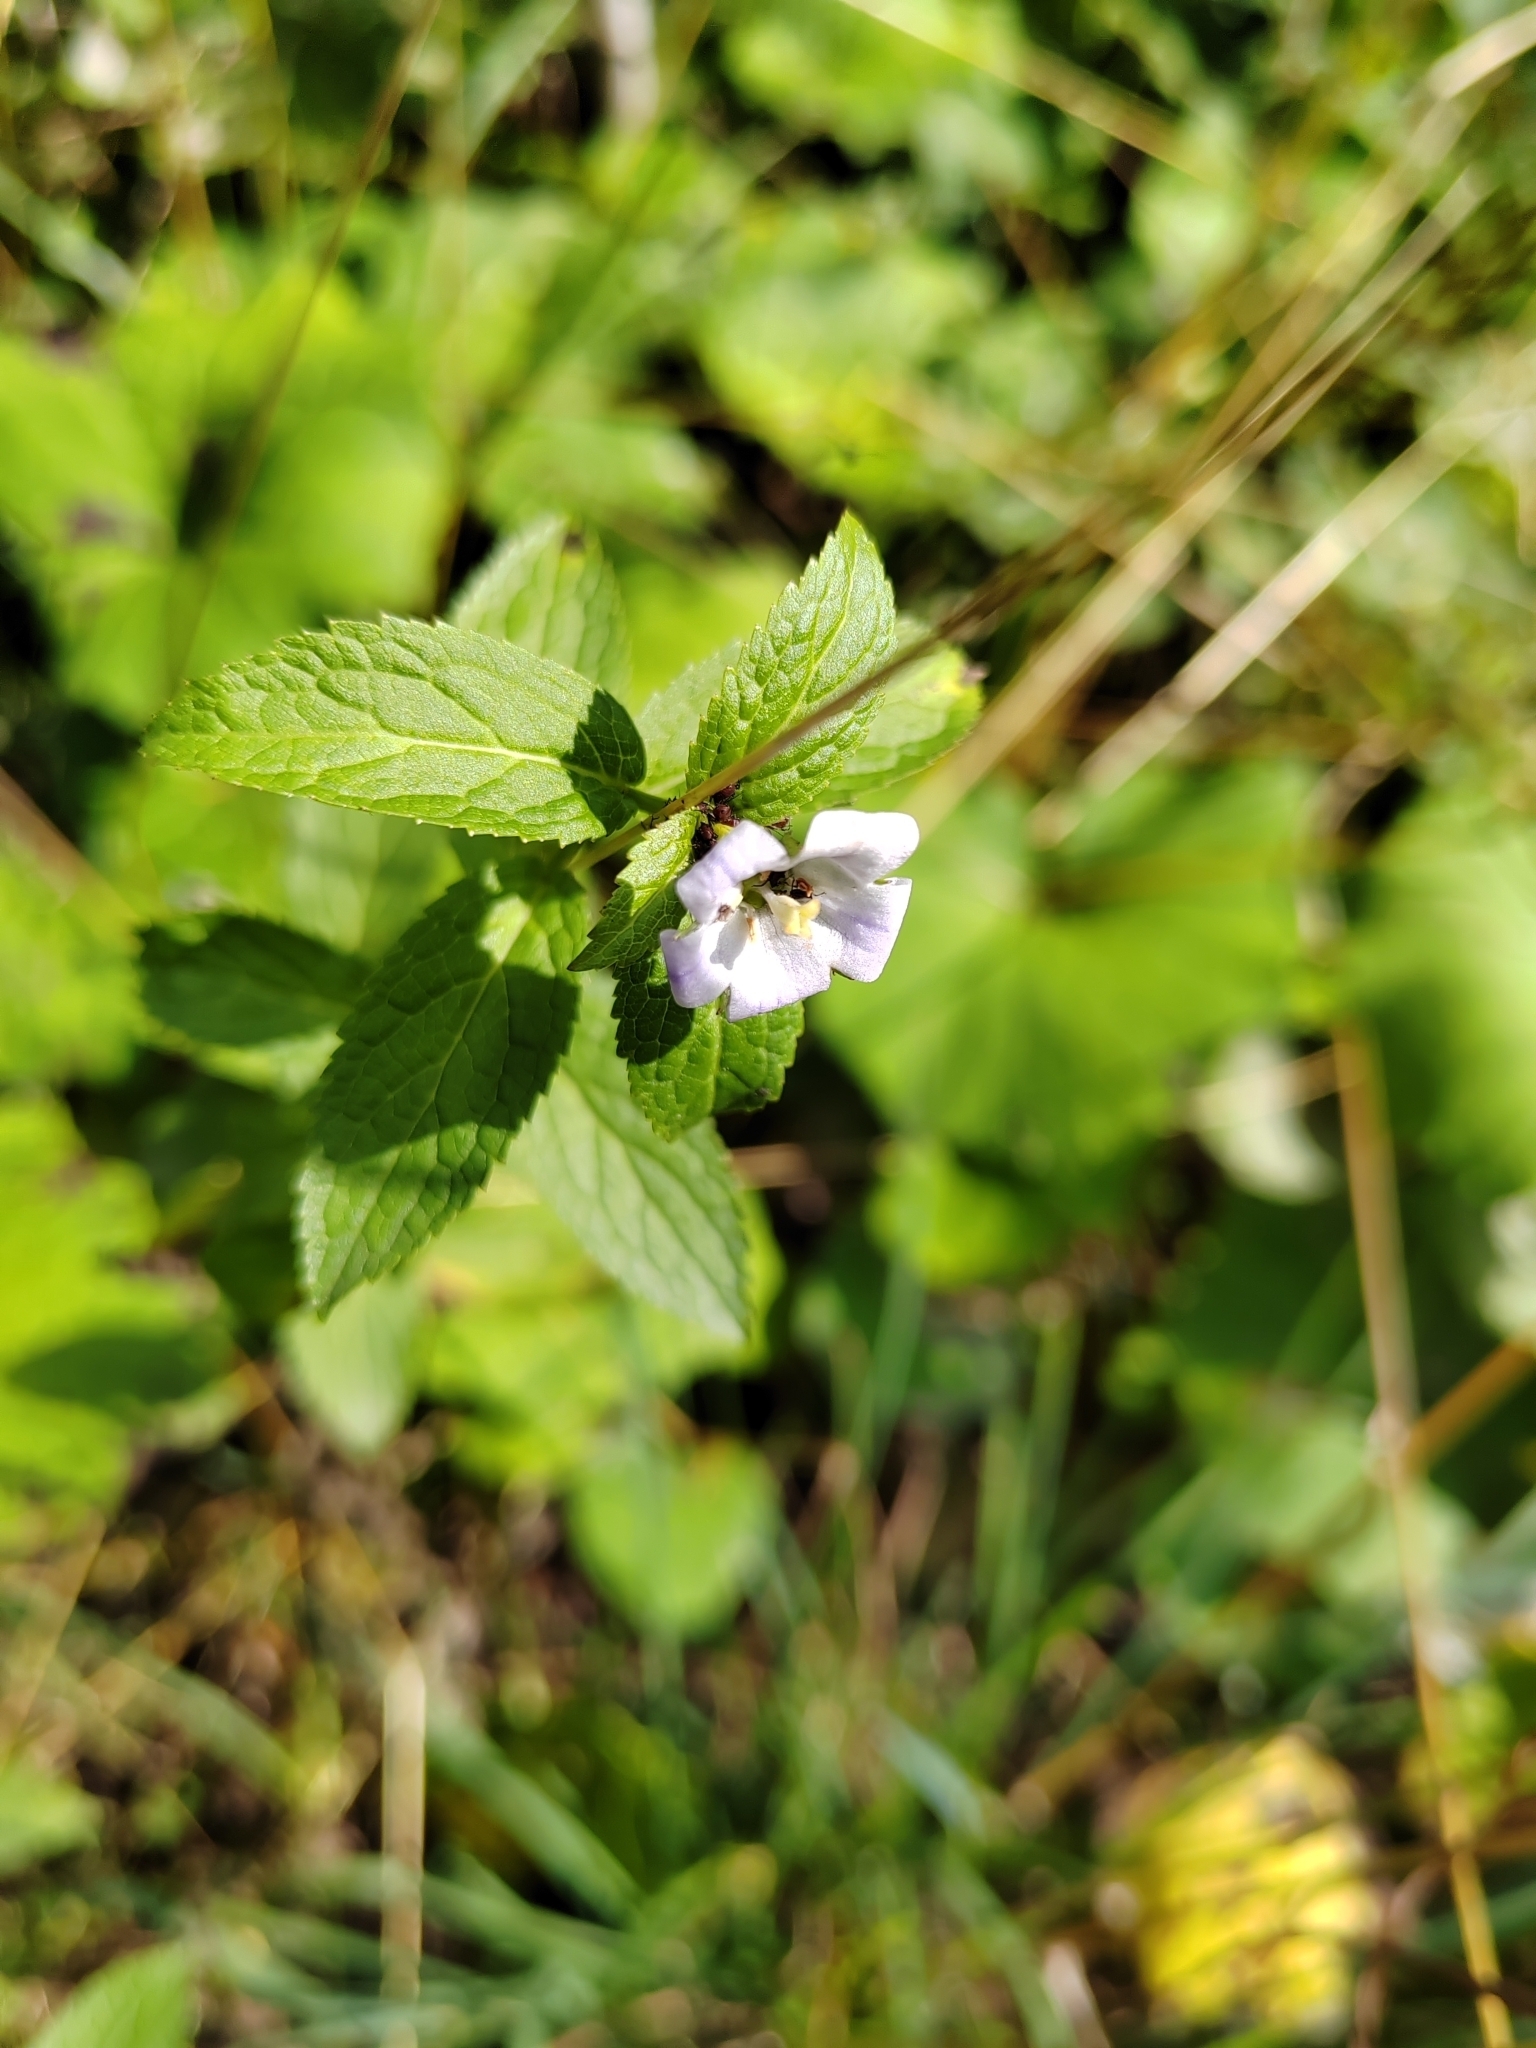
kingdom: Plantae
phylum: Tracheophyta
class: Magnoliopsida
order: Asterales
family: Campanulaceae
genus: Campanula
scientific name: Campanula lactiflora
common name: Milky bellflower
